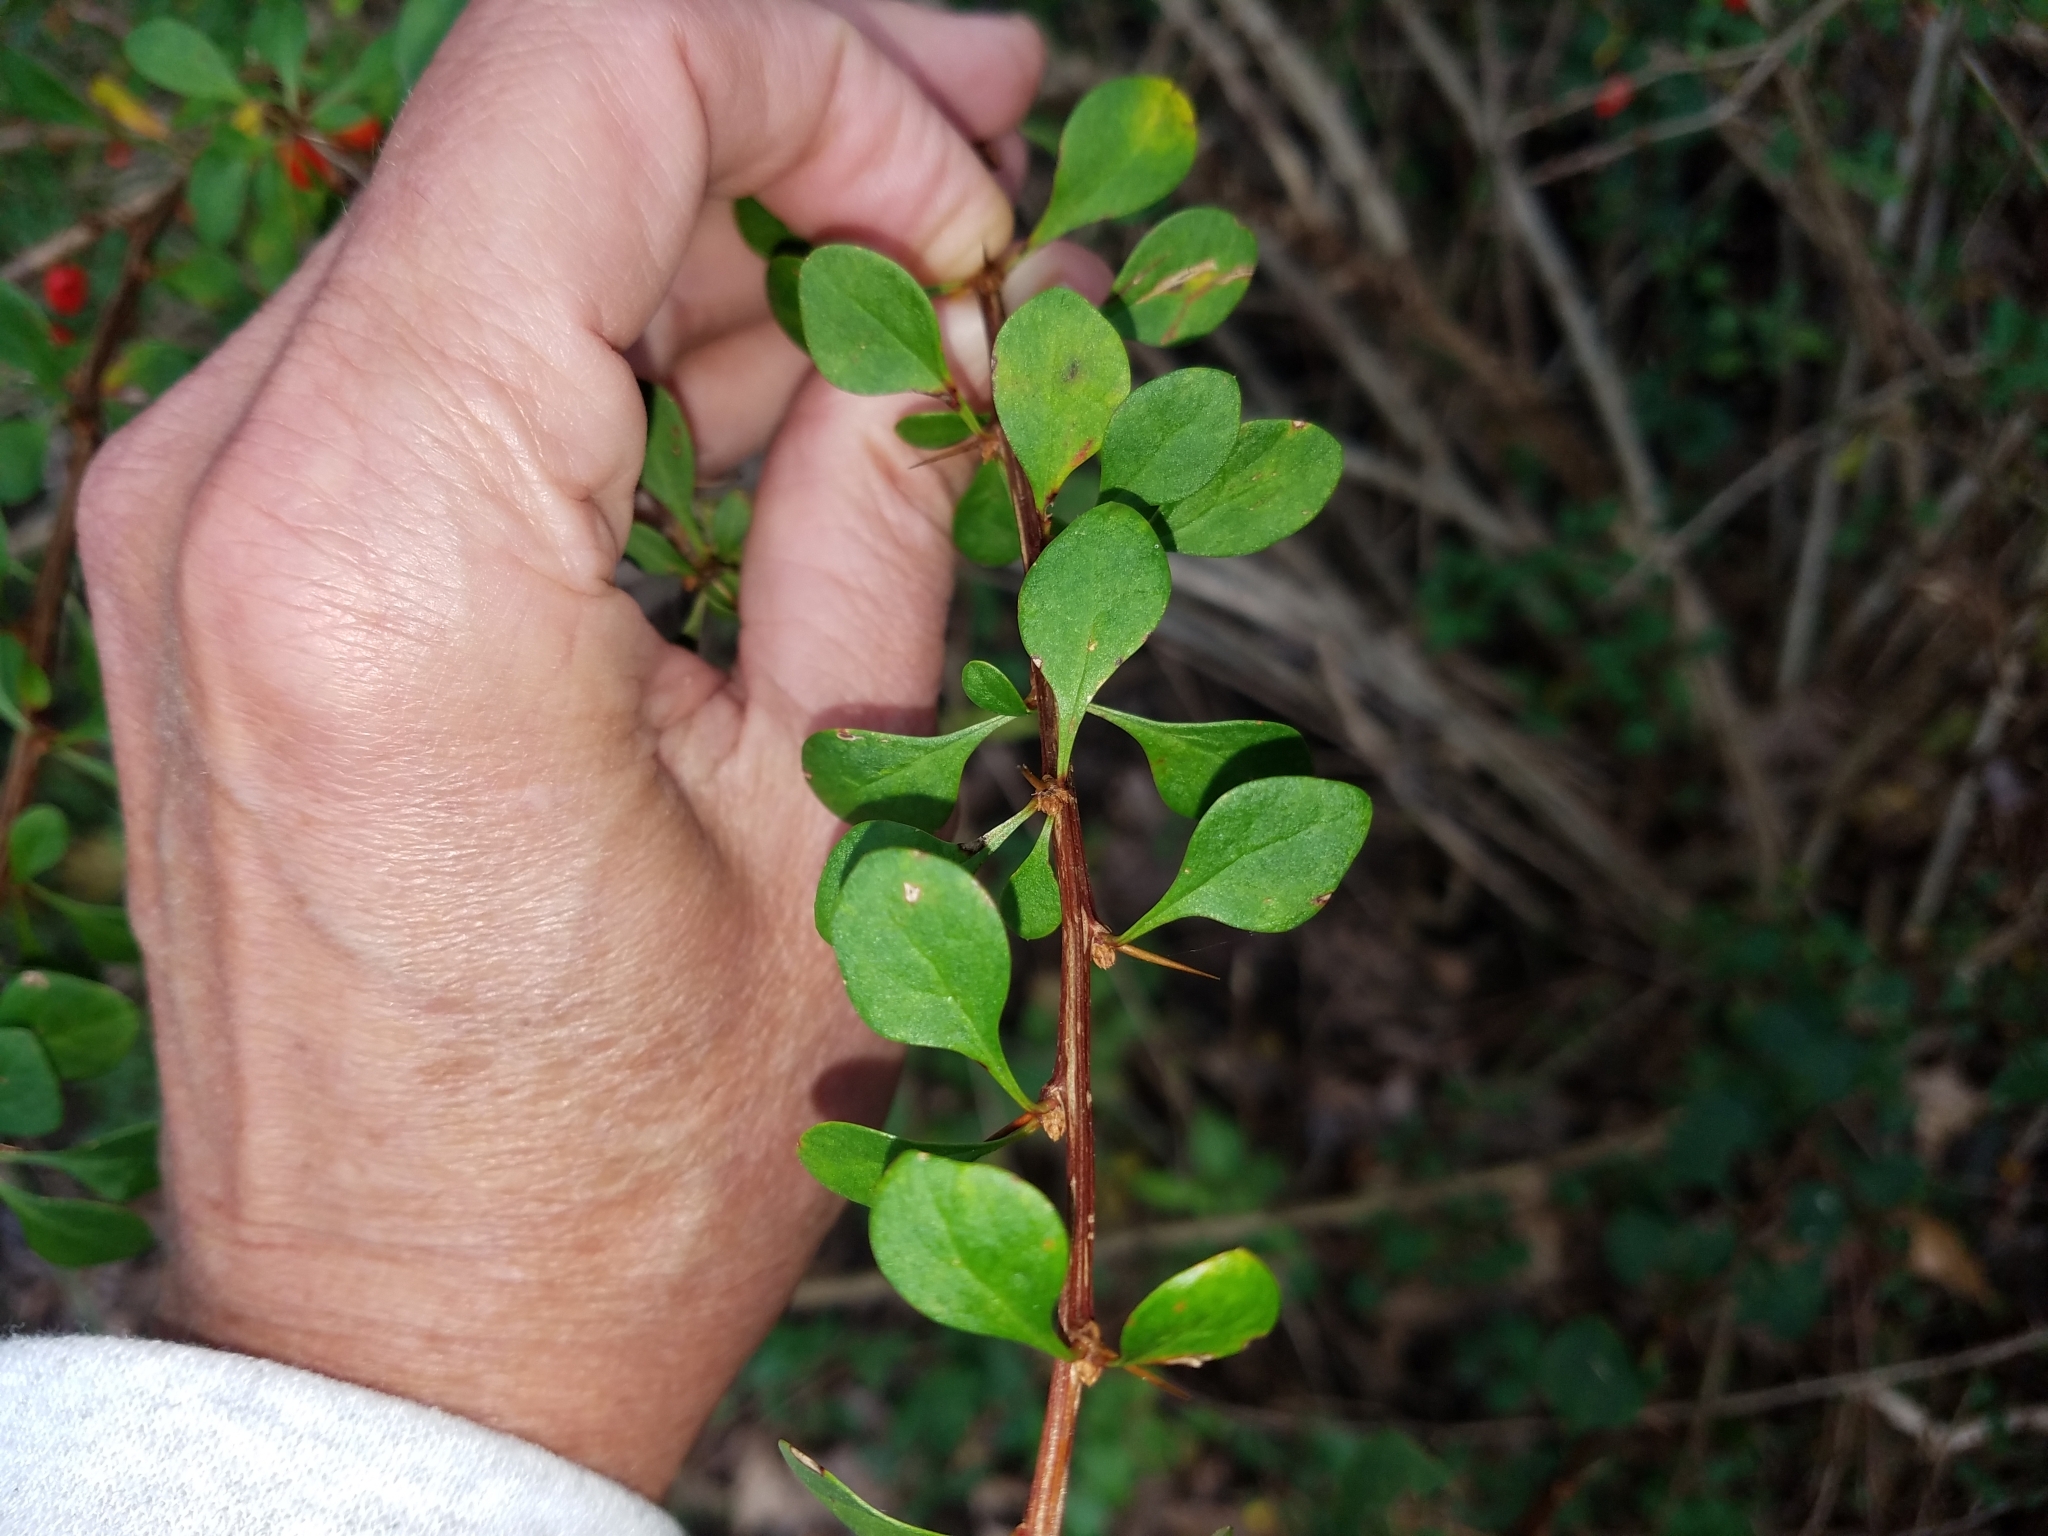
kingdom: Plantae
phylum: Tracheophyta
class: Magnoliopsida
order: Ranunculales
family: Berberidaceae
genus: Berberis
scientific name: Berberis thunbergii
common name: Japanese barberry
